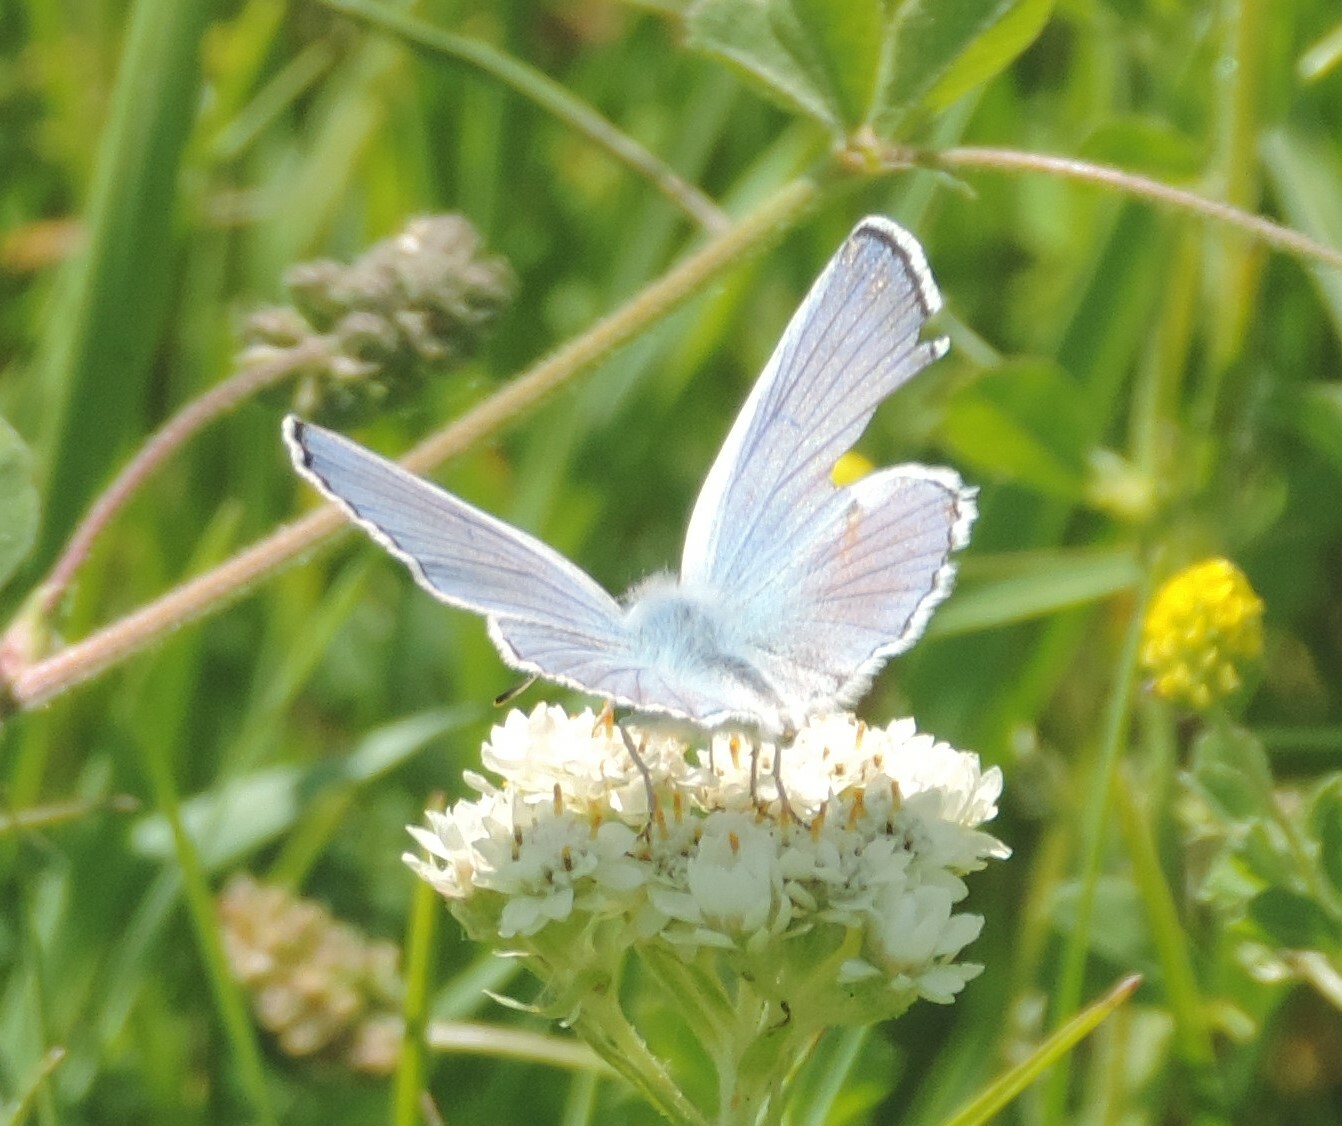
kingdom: Animalia
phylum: Arthropoda
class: Insecta
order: Lepidoptera
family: Lycaenidae
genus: Tharsalea
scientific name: Tharsalea heteronea
